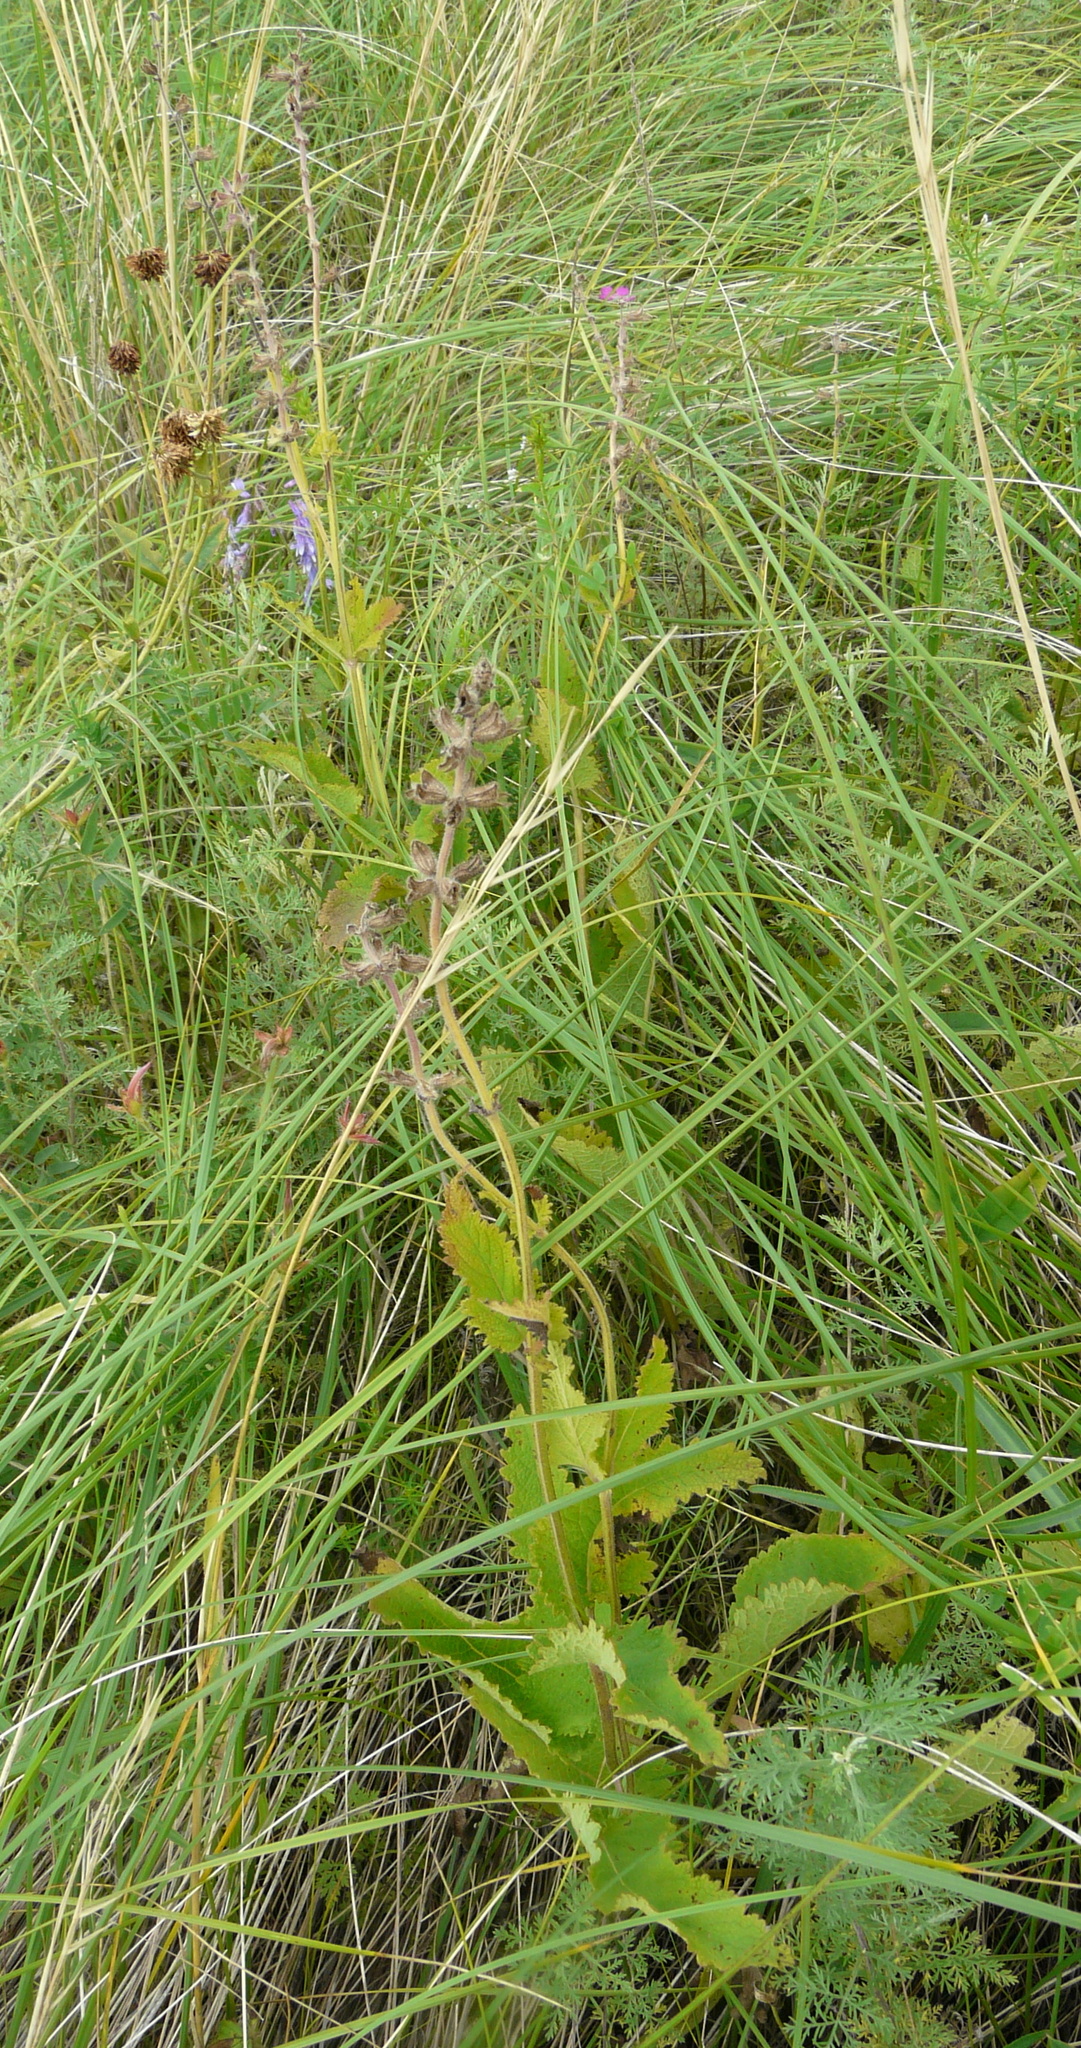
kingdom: Plantae
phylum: Tracheophyta
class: Magnoliopsida
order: Lamiales
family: Lamiaceae
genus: Salvia
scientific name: Salvia dumetorum
